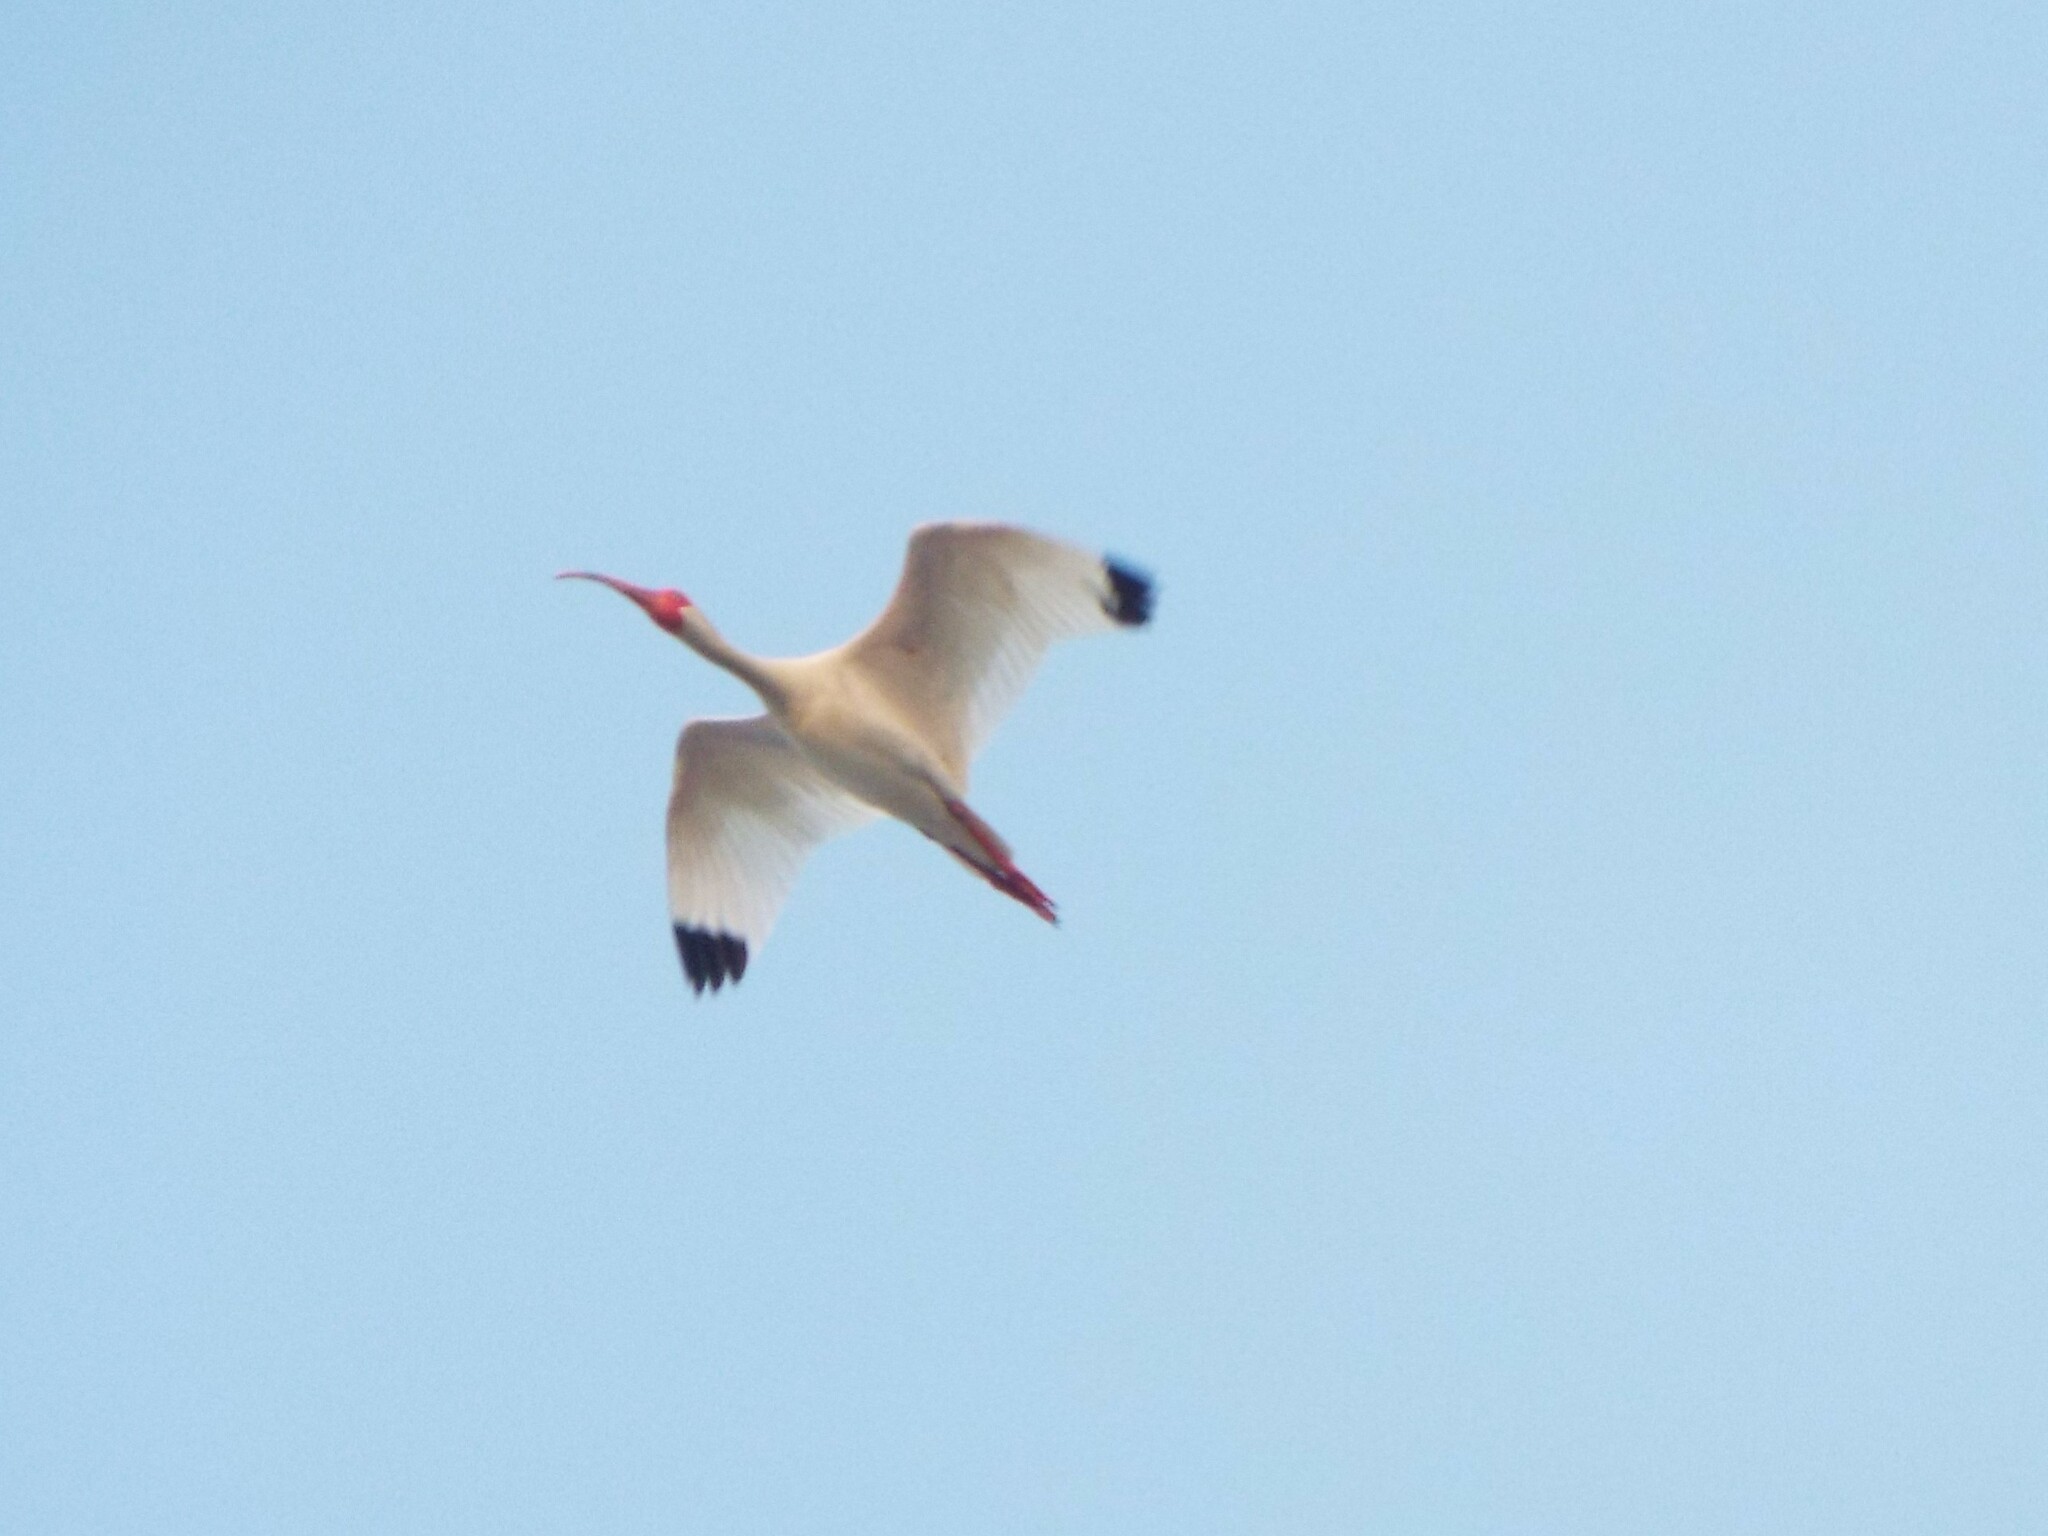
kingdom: Animalia
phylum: Chordata
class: Aves
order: Pelecaniformes
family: Threskiornithidae
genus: Eudocimus
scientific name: Eudocimus albus
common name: White ibis
